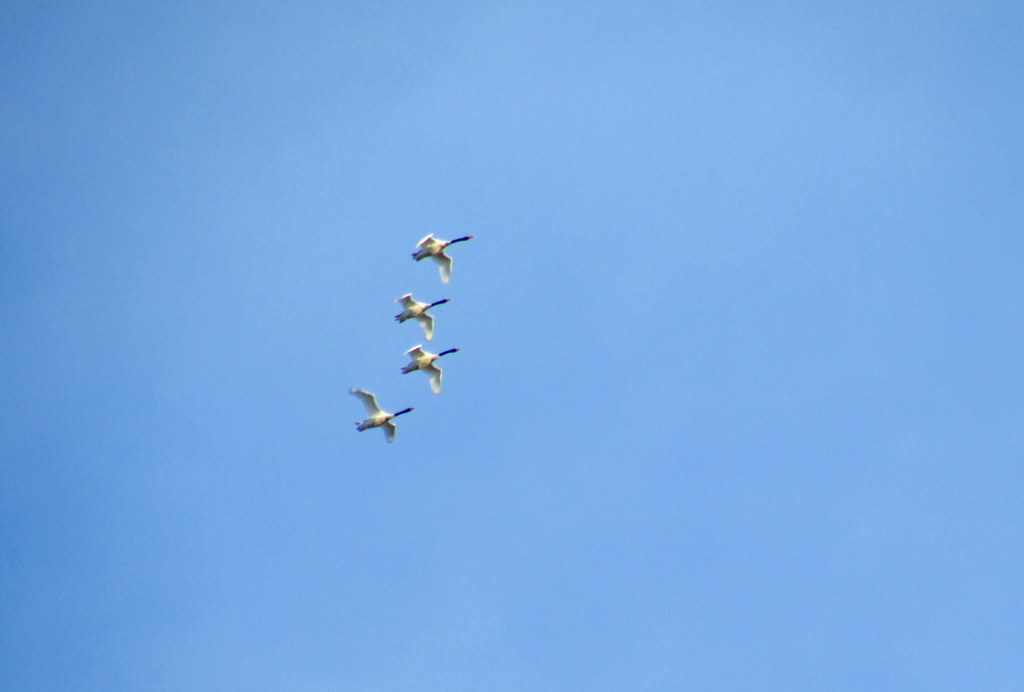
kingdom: Animalia
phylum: Chordata
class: Aves
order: Anseriformes
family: Anatidae
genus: Cygnus
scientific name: Cygnus melancoryphus
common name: Black-necked swan
